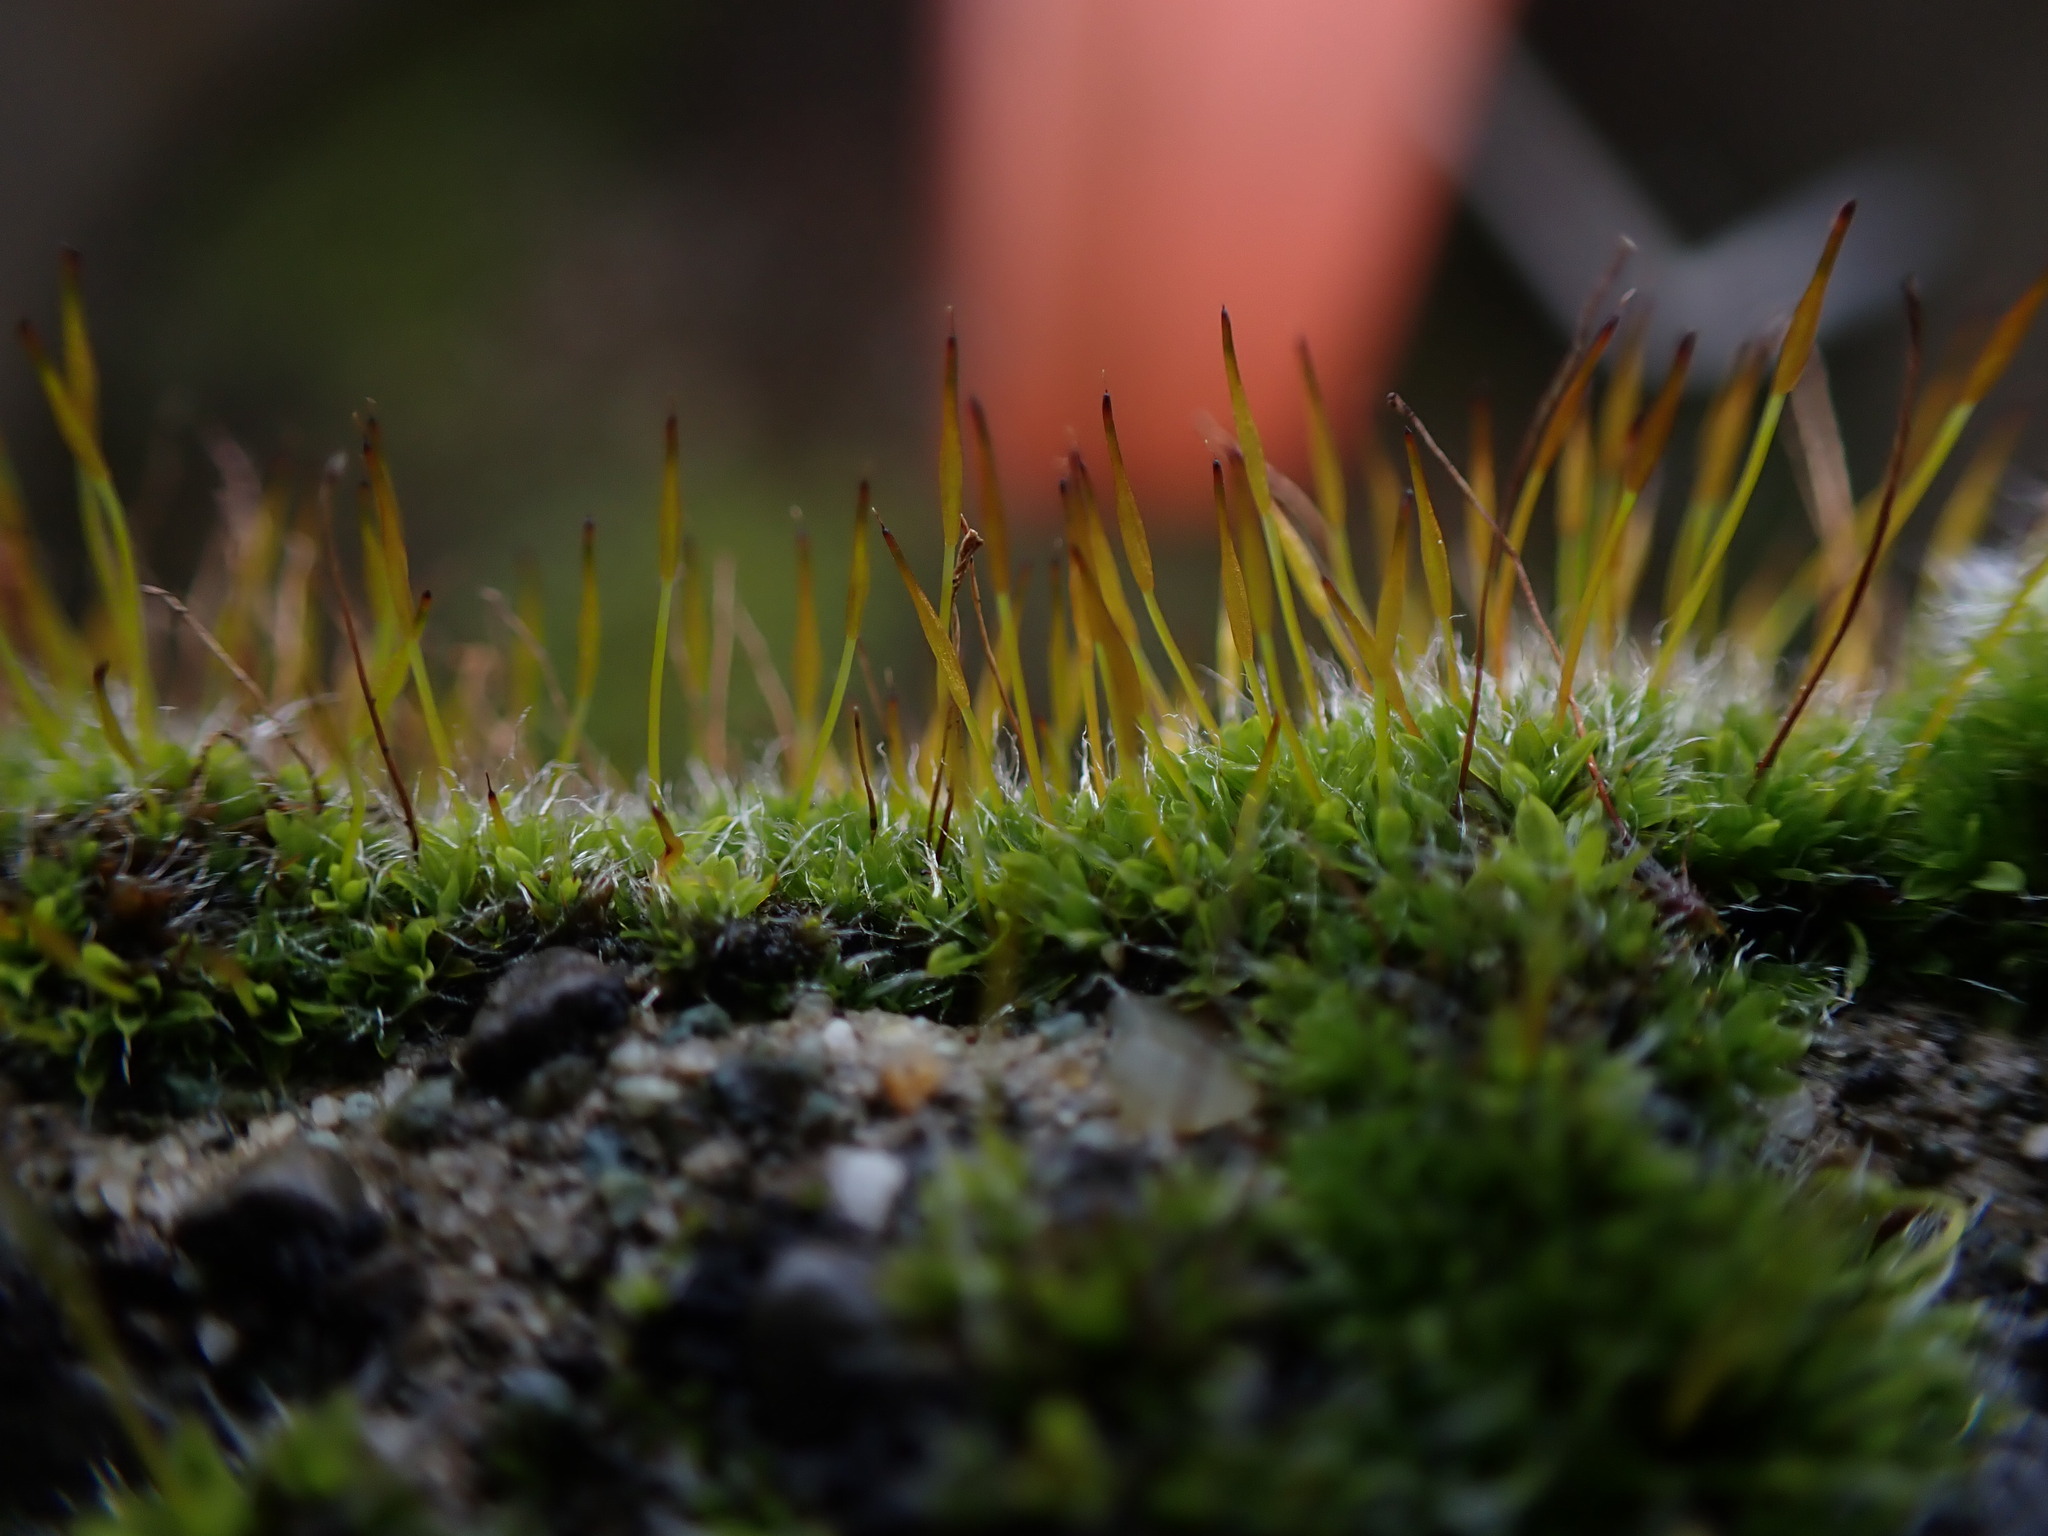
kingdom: Plantae
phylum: Bryophyta
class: Bryopsida
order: Pottiales
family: Pottiaceae
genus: Tortula
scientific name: Tortula muralis
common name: Wall screw-moss
